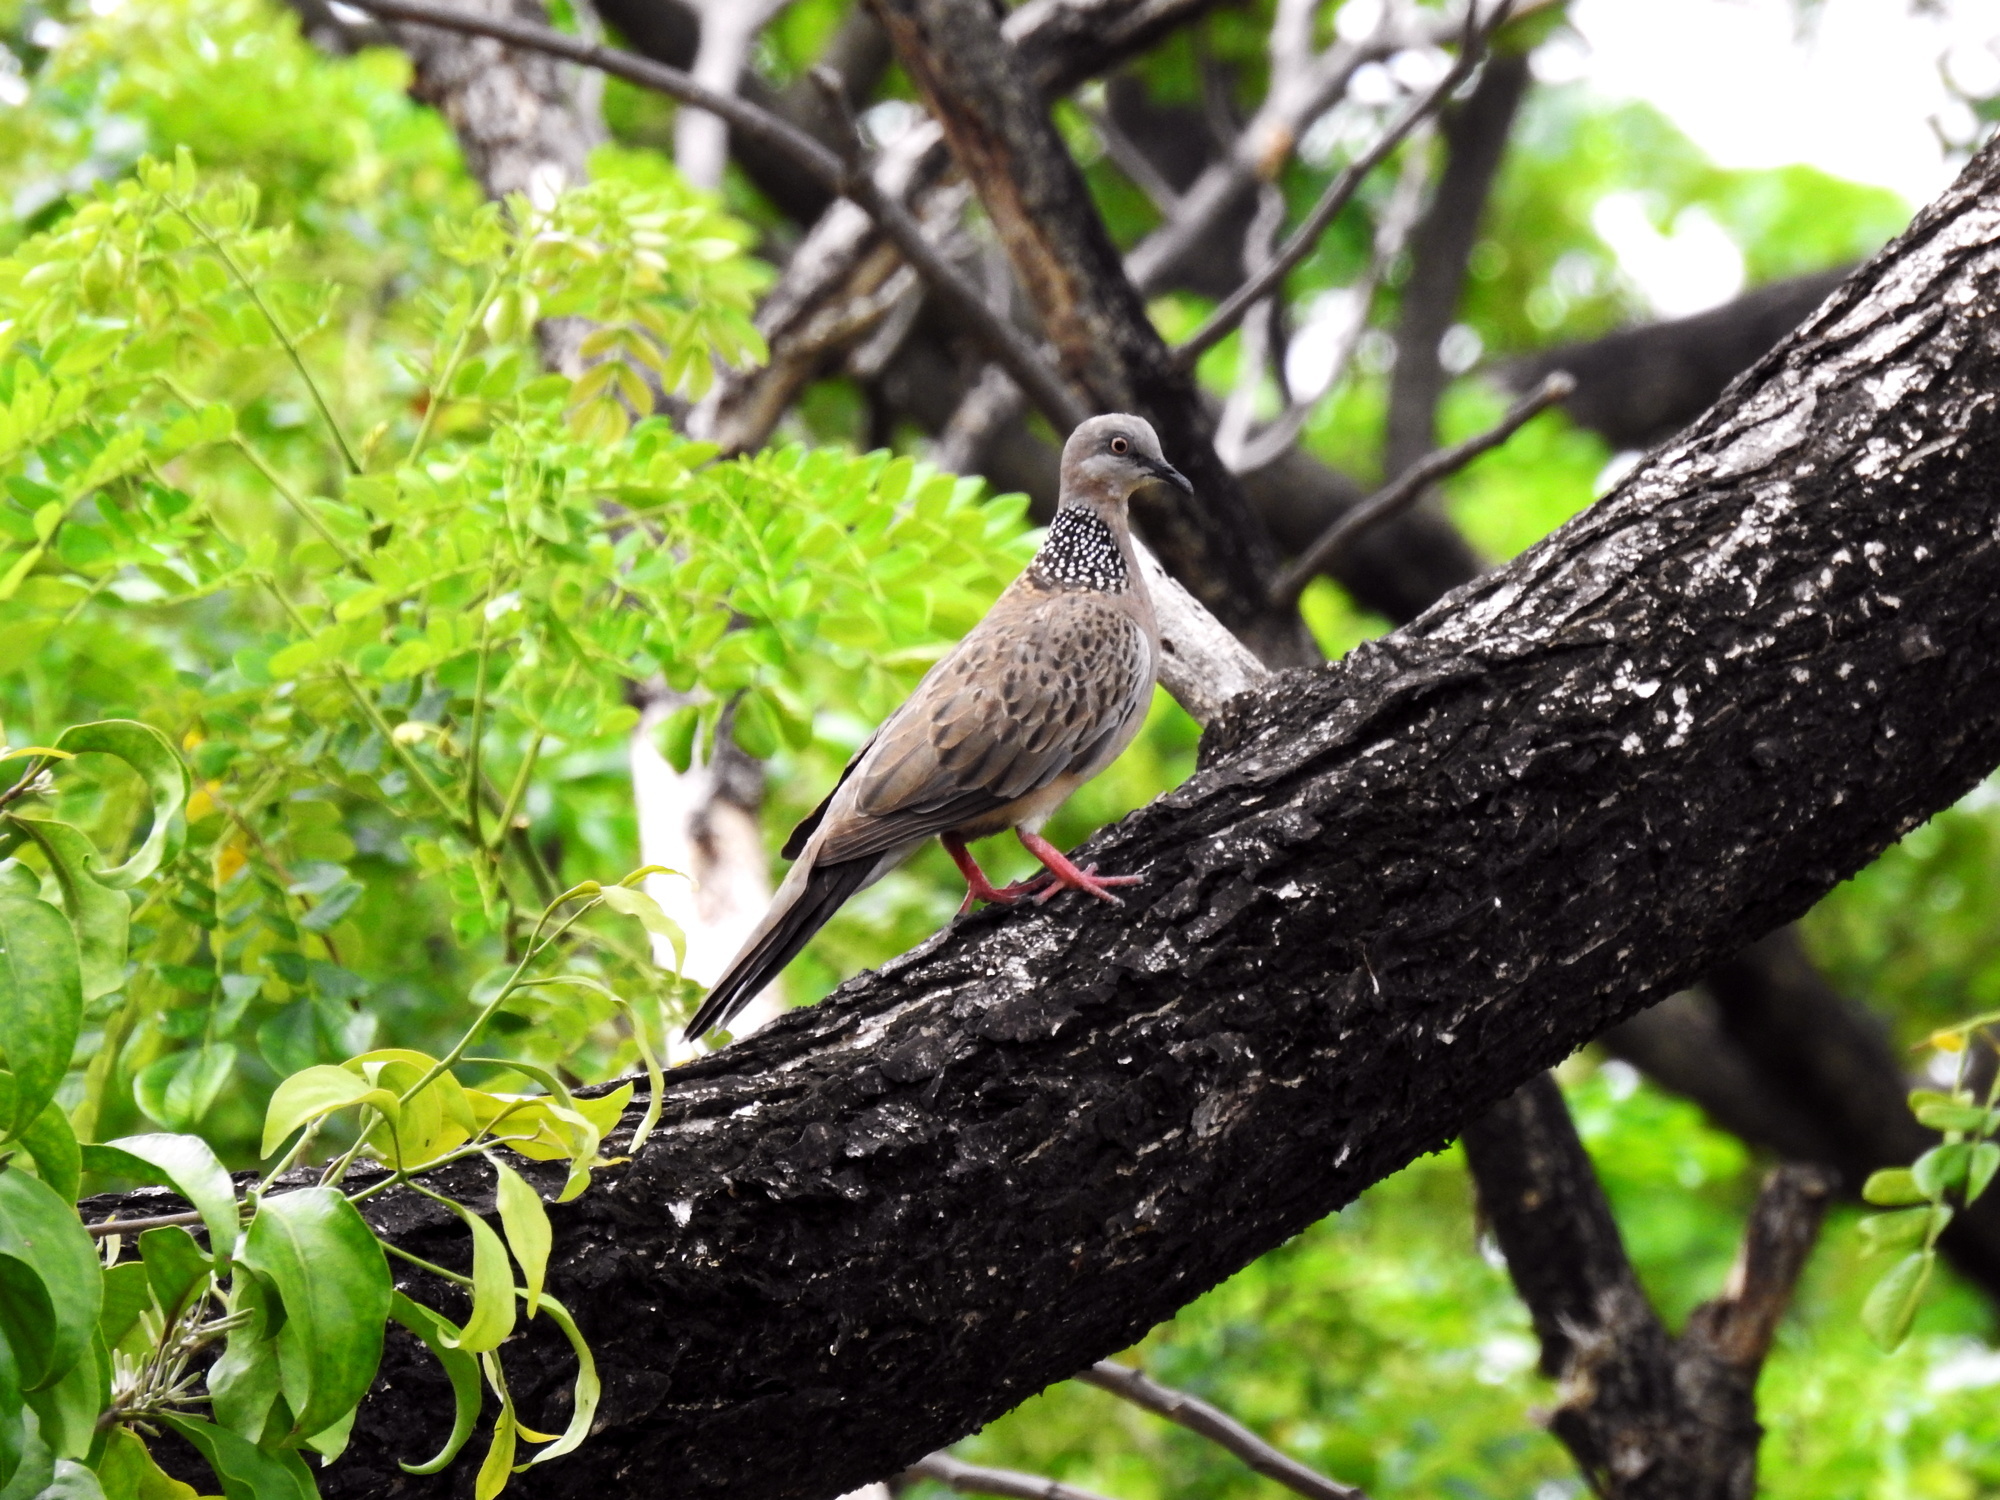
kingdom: Animalia
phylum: Chordata
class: Aves
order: Columbiformes
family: Columbidae
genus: Spilopelia
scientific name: Spilopelia chinensis
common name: Spotted dove
